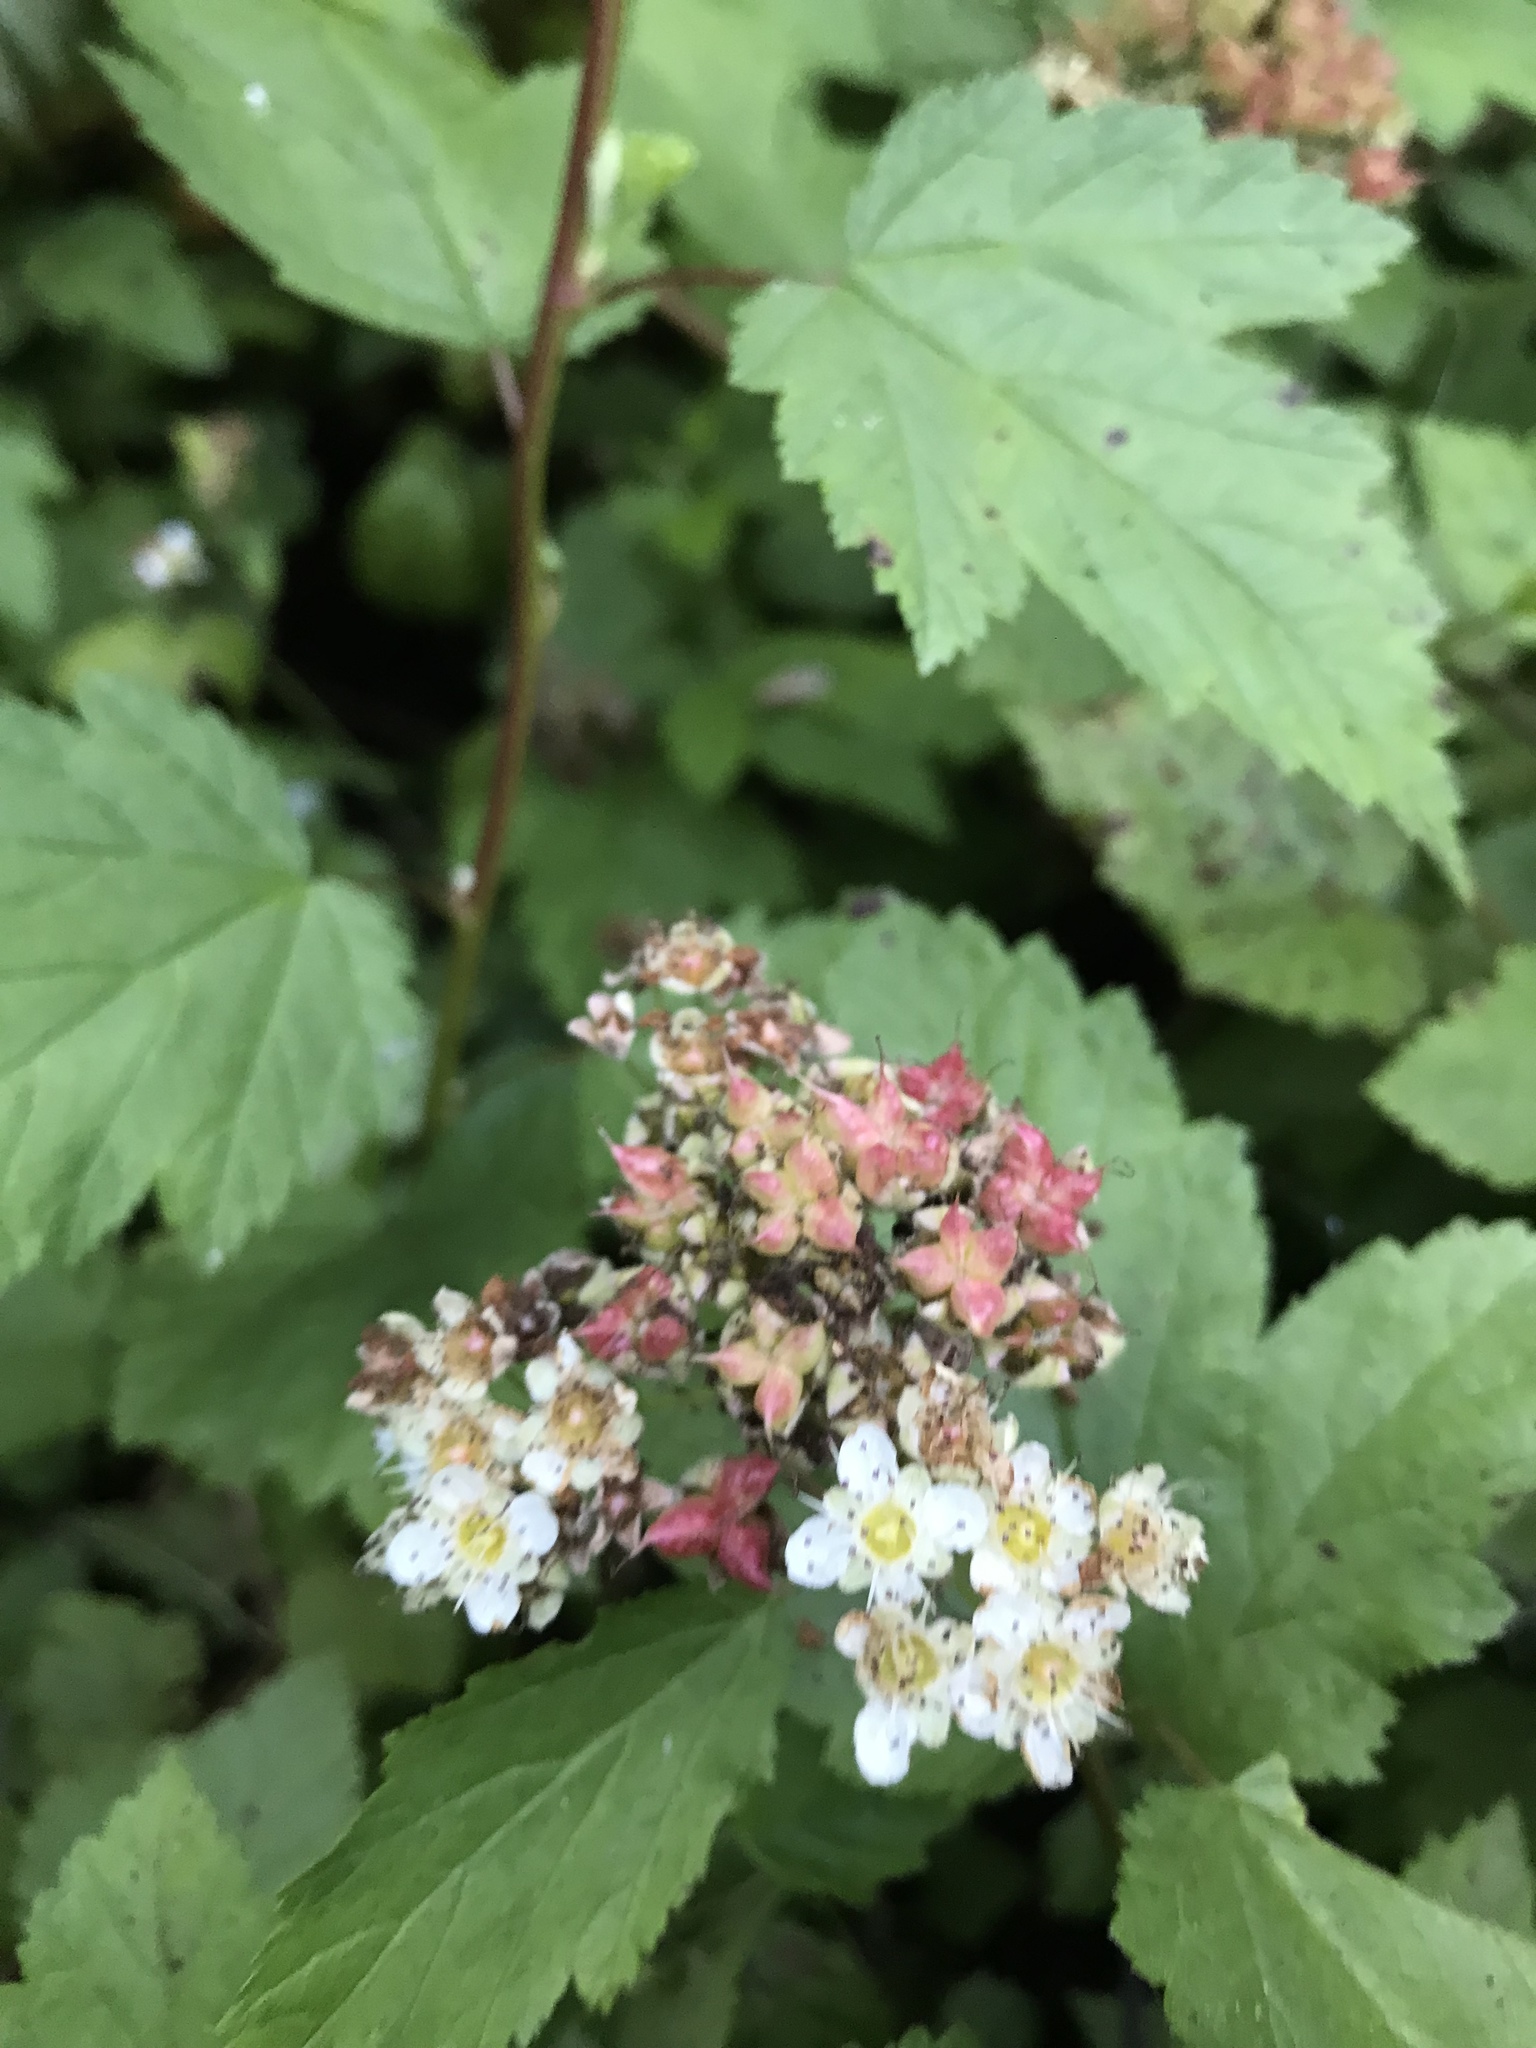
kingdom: Plantae
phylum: Tracheophyta
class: Magnoliopsida
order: Rosales
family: Rosaceae
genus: Physocarpus
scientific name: Physocarpus capitatus
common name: Pacific ninebark
